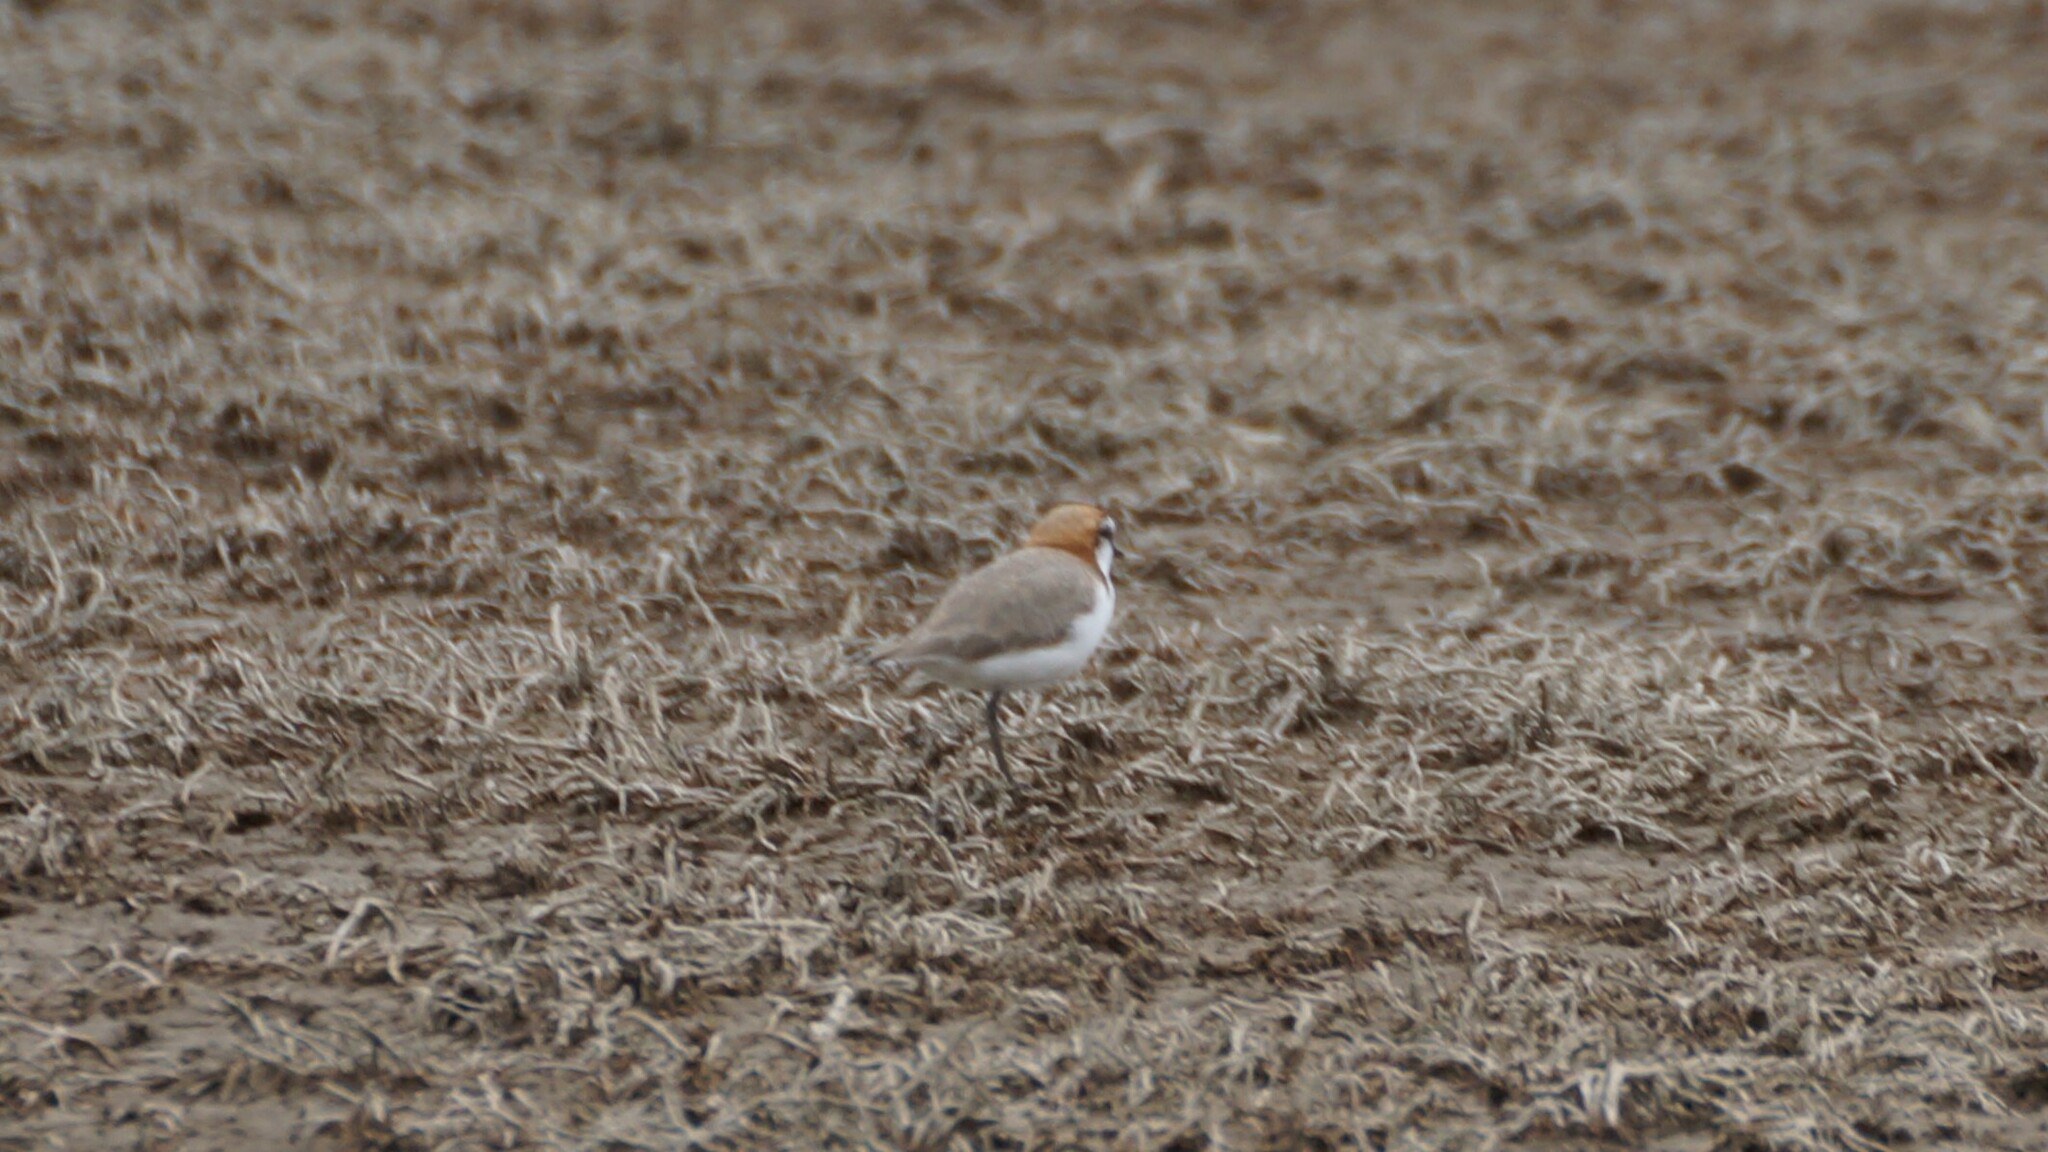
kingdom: Animalia
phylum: Chordata
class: Aves
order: Charadriiformes
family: Charadriidae
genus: Anarhynchus
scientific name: Anarhynchus
